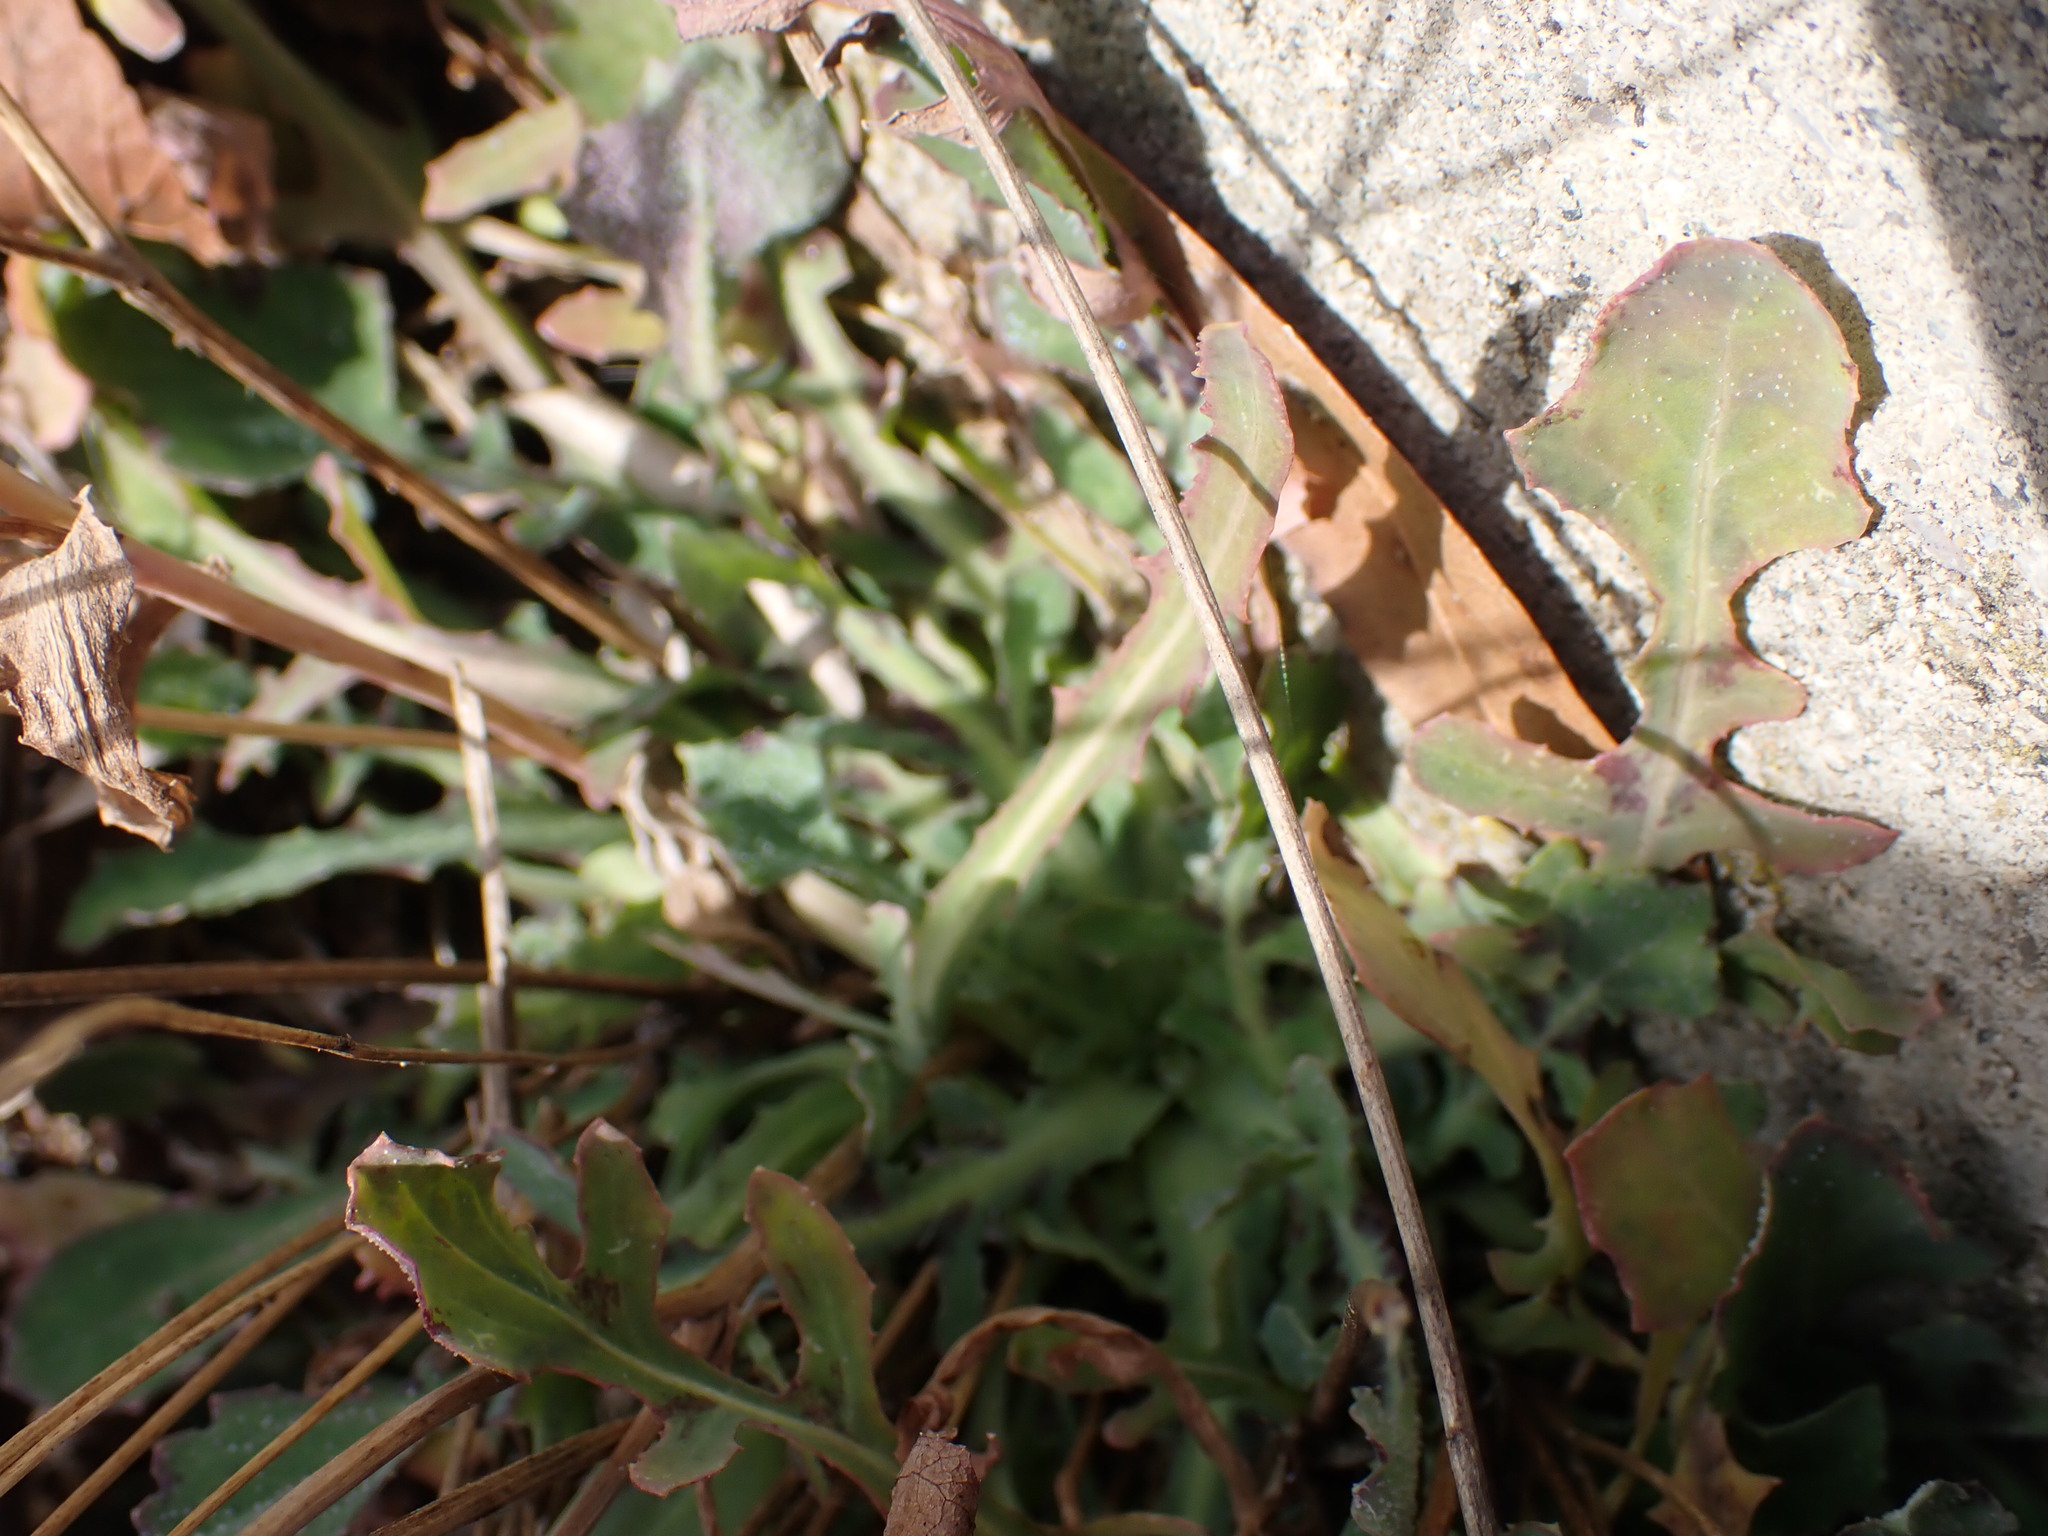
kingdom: Plantae
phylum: Tracheophyta
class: Magnoliopsida
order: Asterales
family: Asteraceae
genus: Reichardia
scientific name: Reichardia picroides
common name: Common brighteyes
